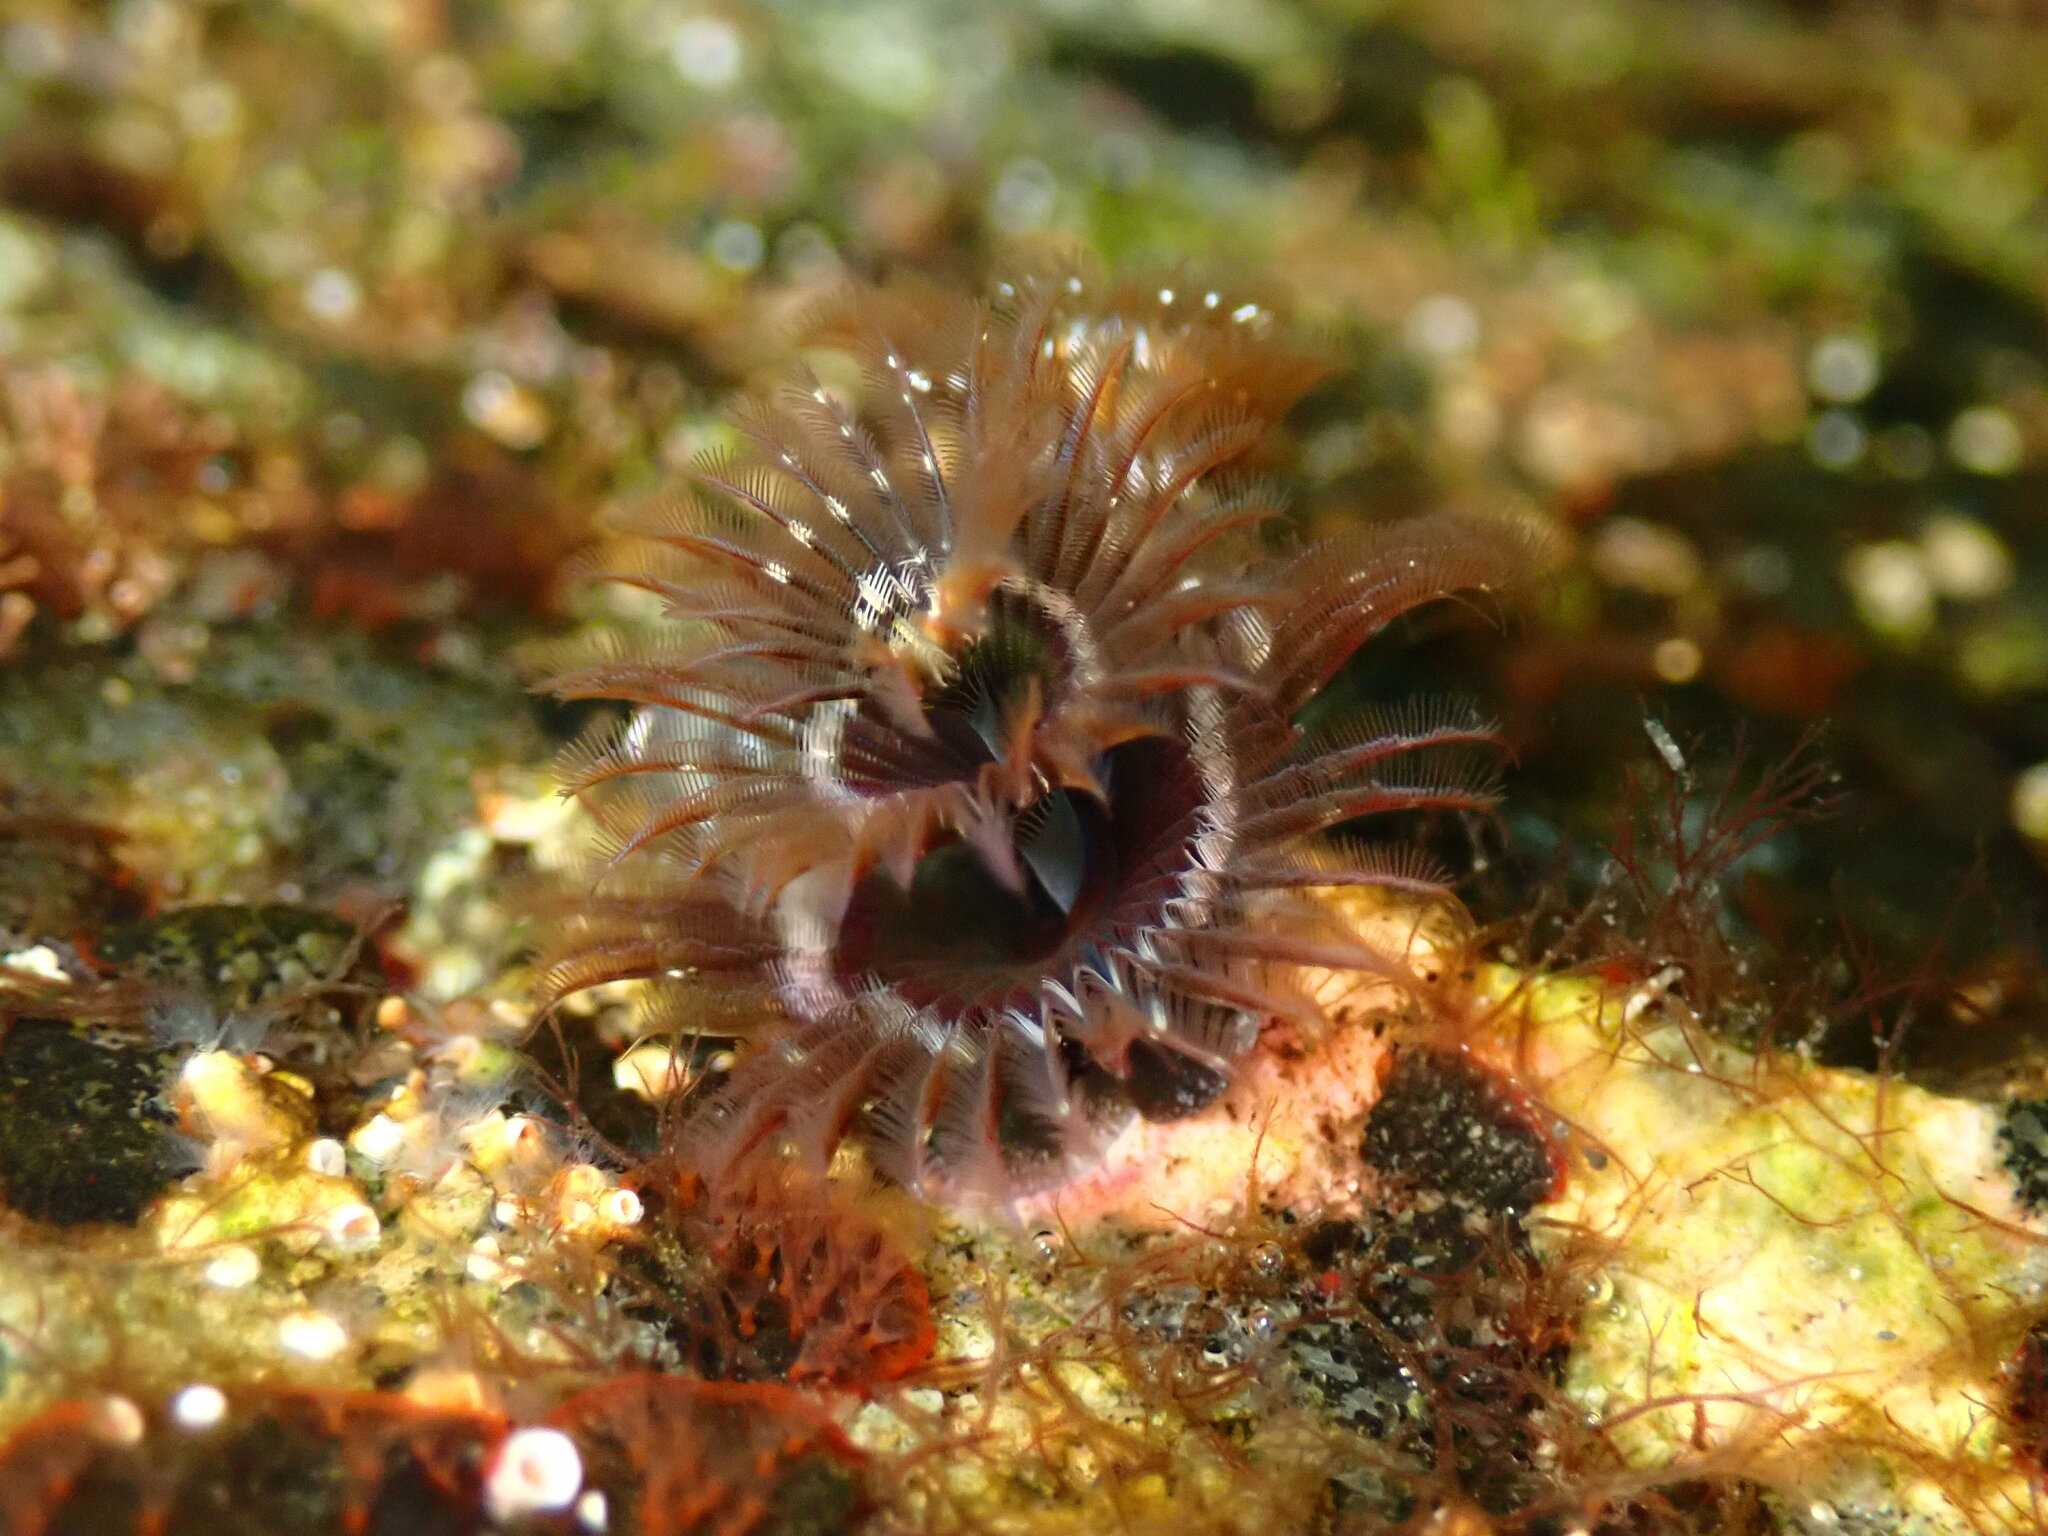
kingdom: Animalia
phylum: Annelida
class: Polychaeta
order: Sabellida
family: Serpulidae
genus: Spirobranchus
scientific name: Spirobranchus spinosus
